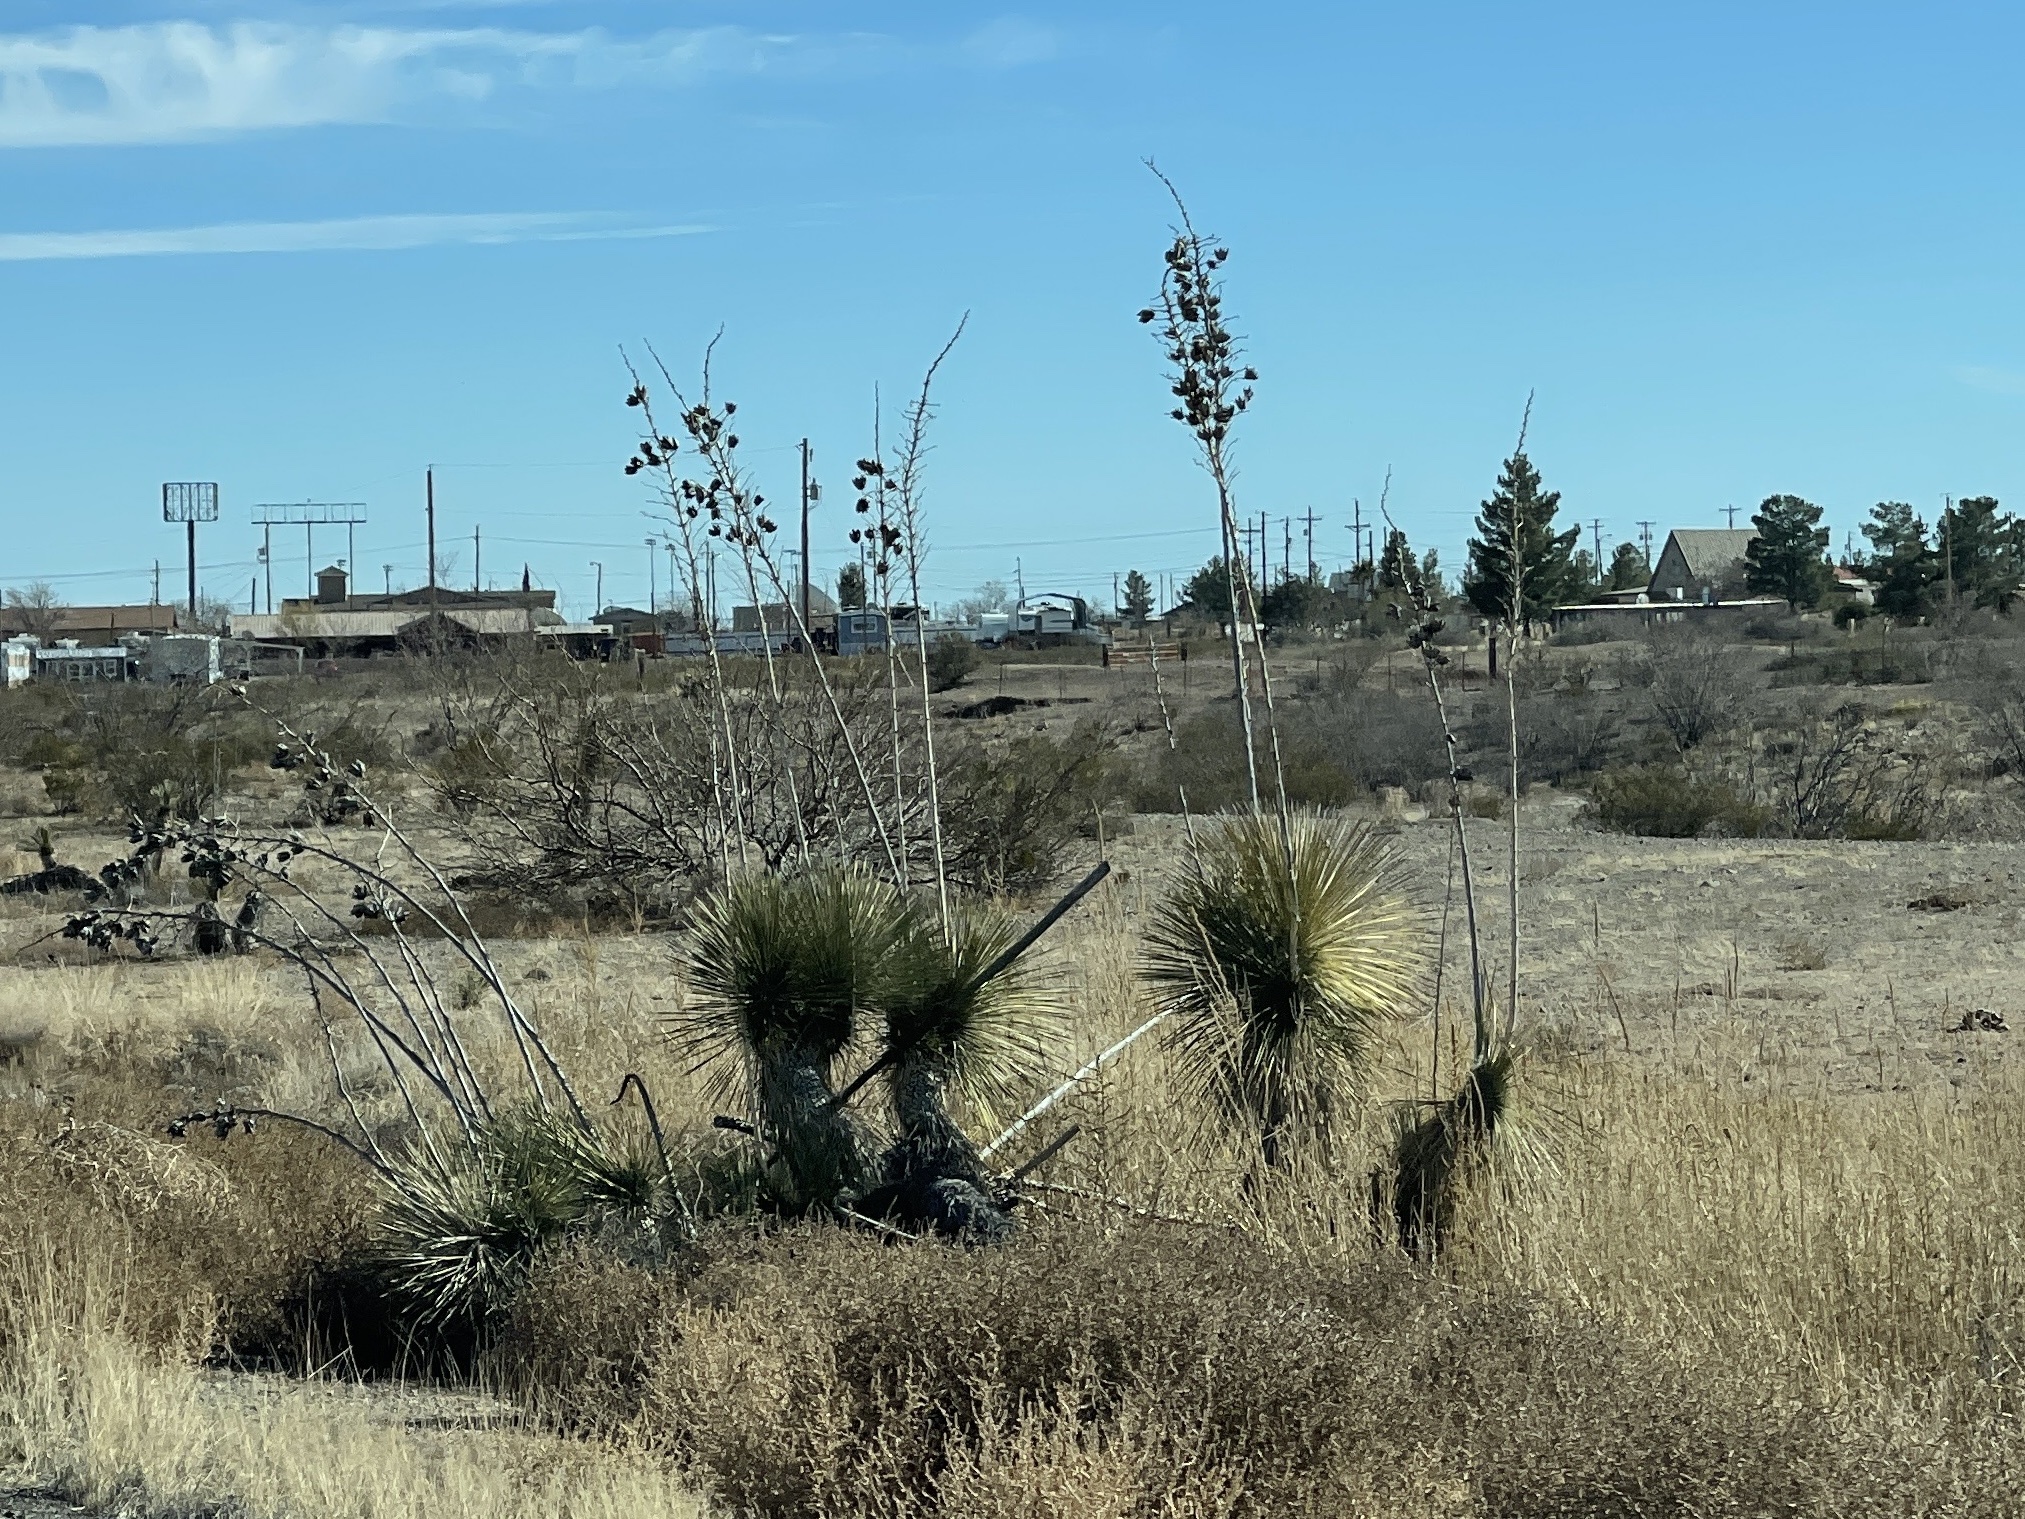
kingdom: Plantae
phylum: Tracheophyta
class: Liliopsida
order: Asparagales
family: Asparagaceae
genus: Yucca
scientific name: Yucca elata
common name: Palmella
